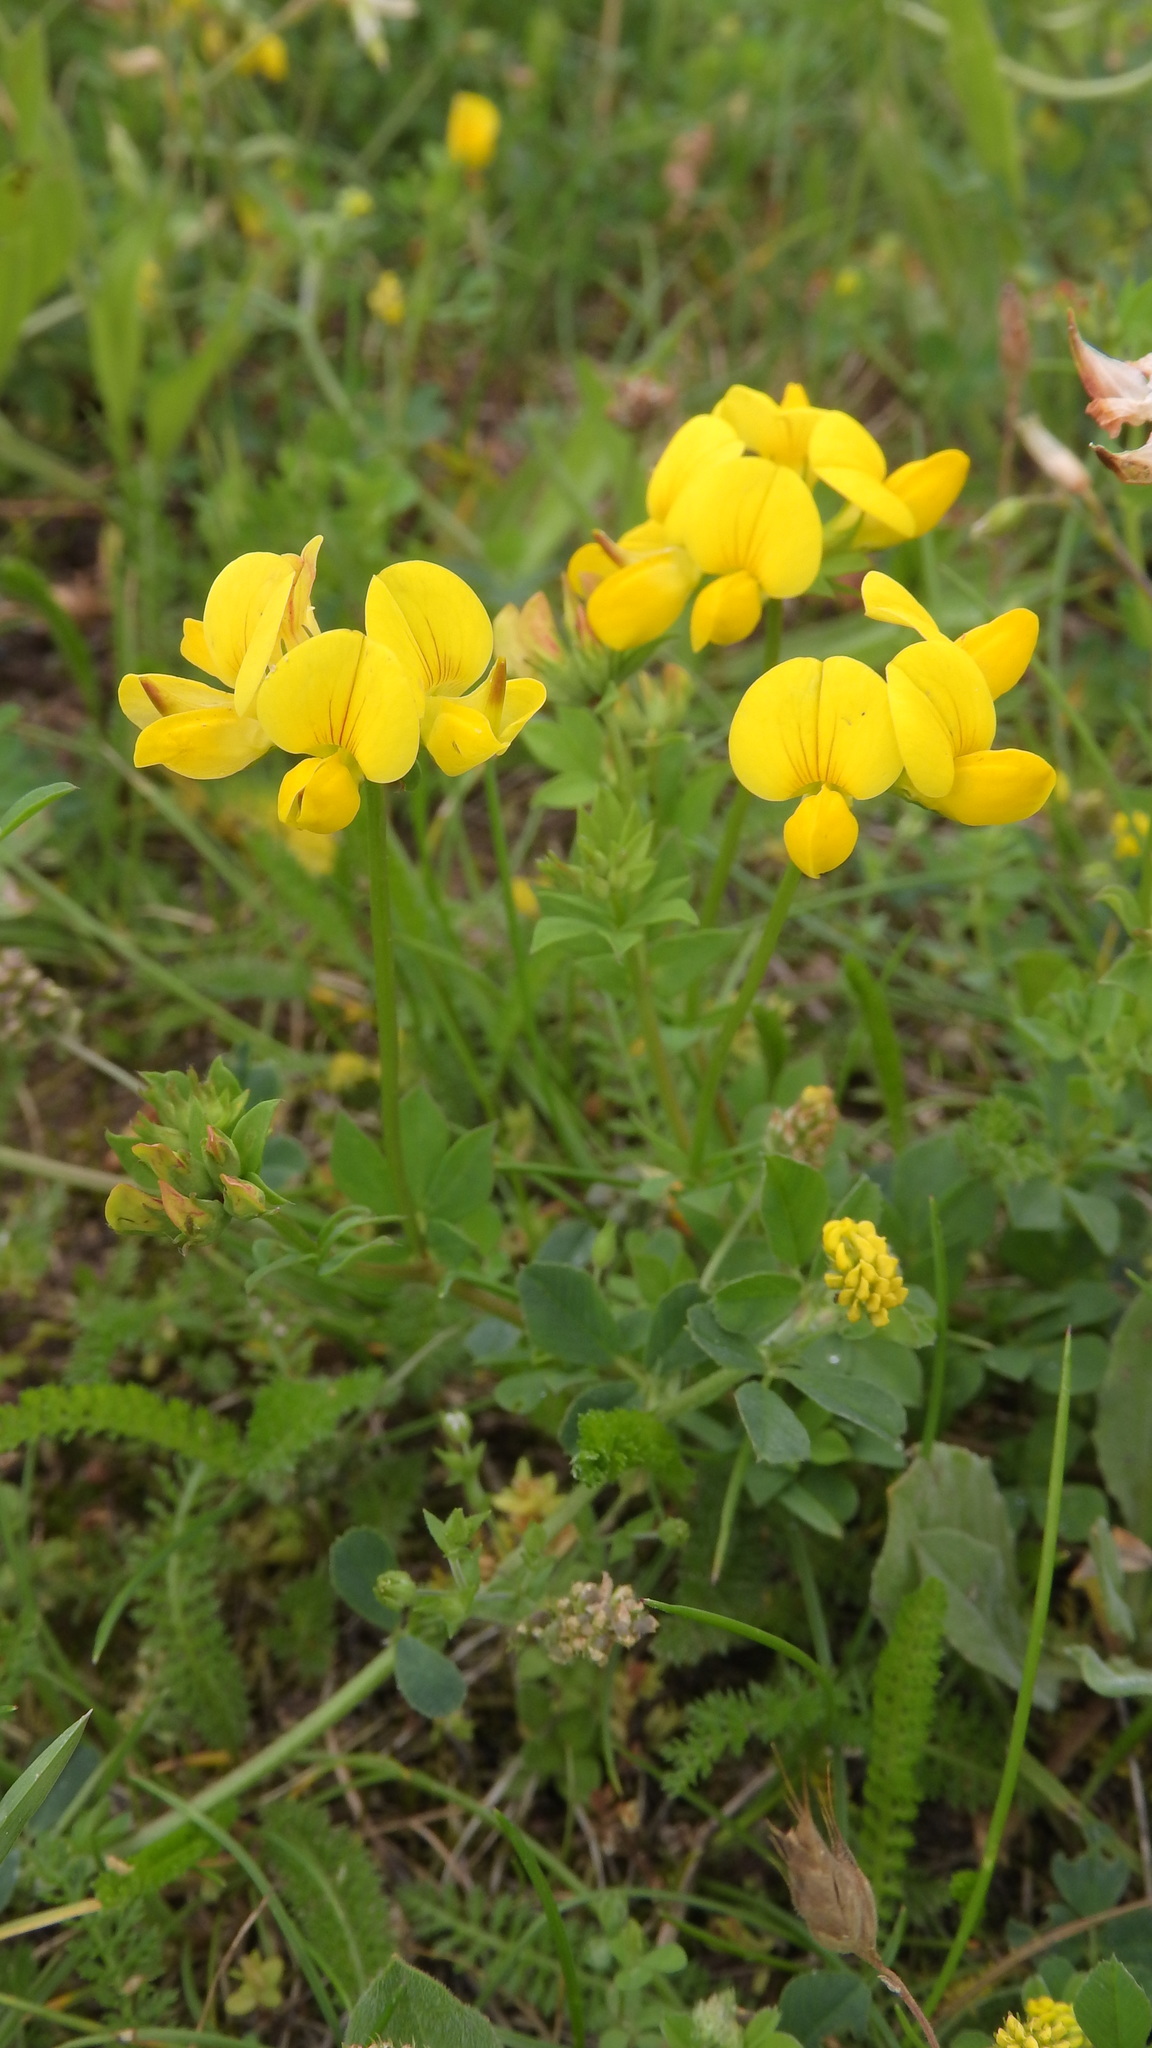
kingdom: Plantae
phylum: Tracheophyta
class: Magnoliopsida
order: Fabales
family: Fabaceae
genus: Lotus
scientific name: Lotus corniculatus
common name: Common bird's-foot-trefoil
